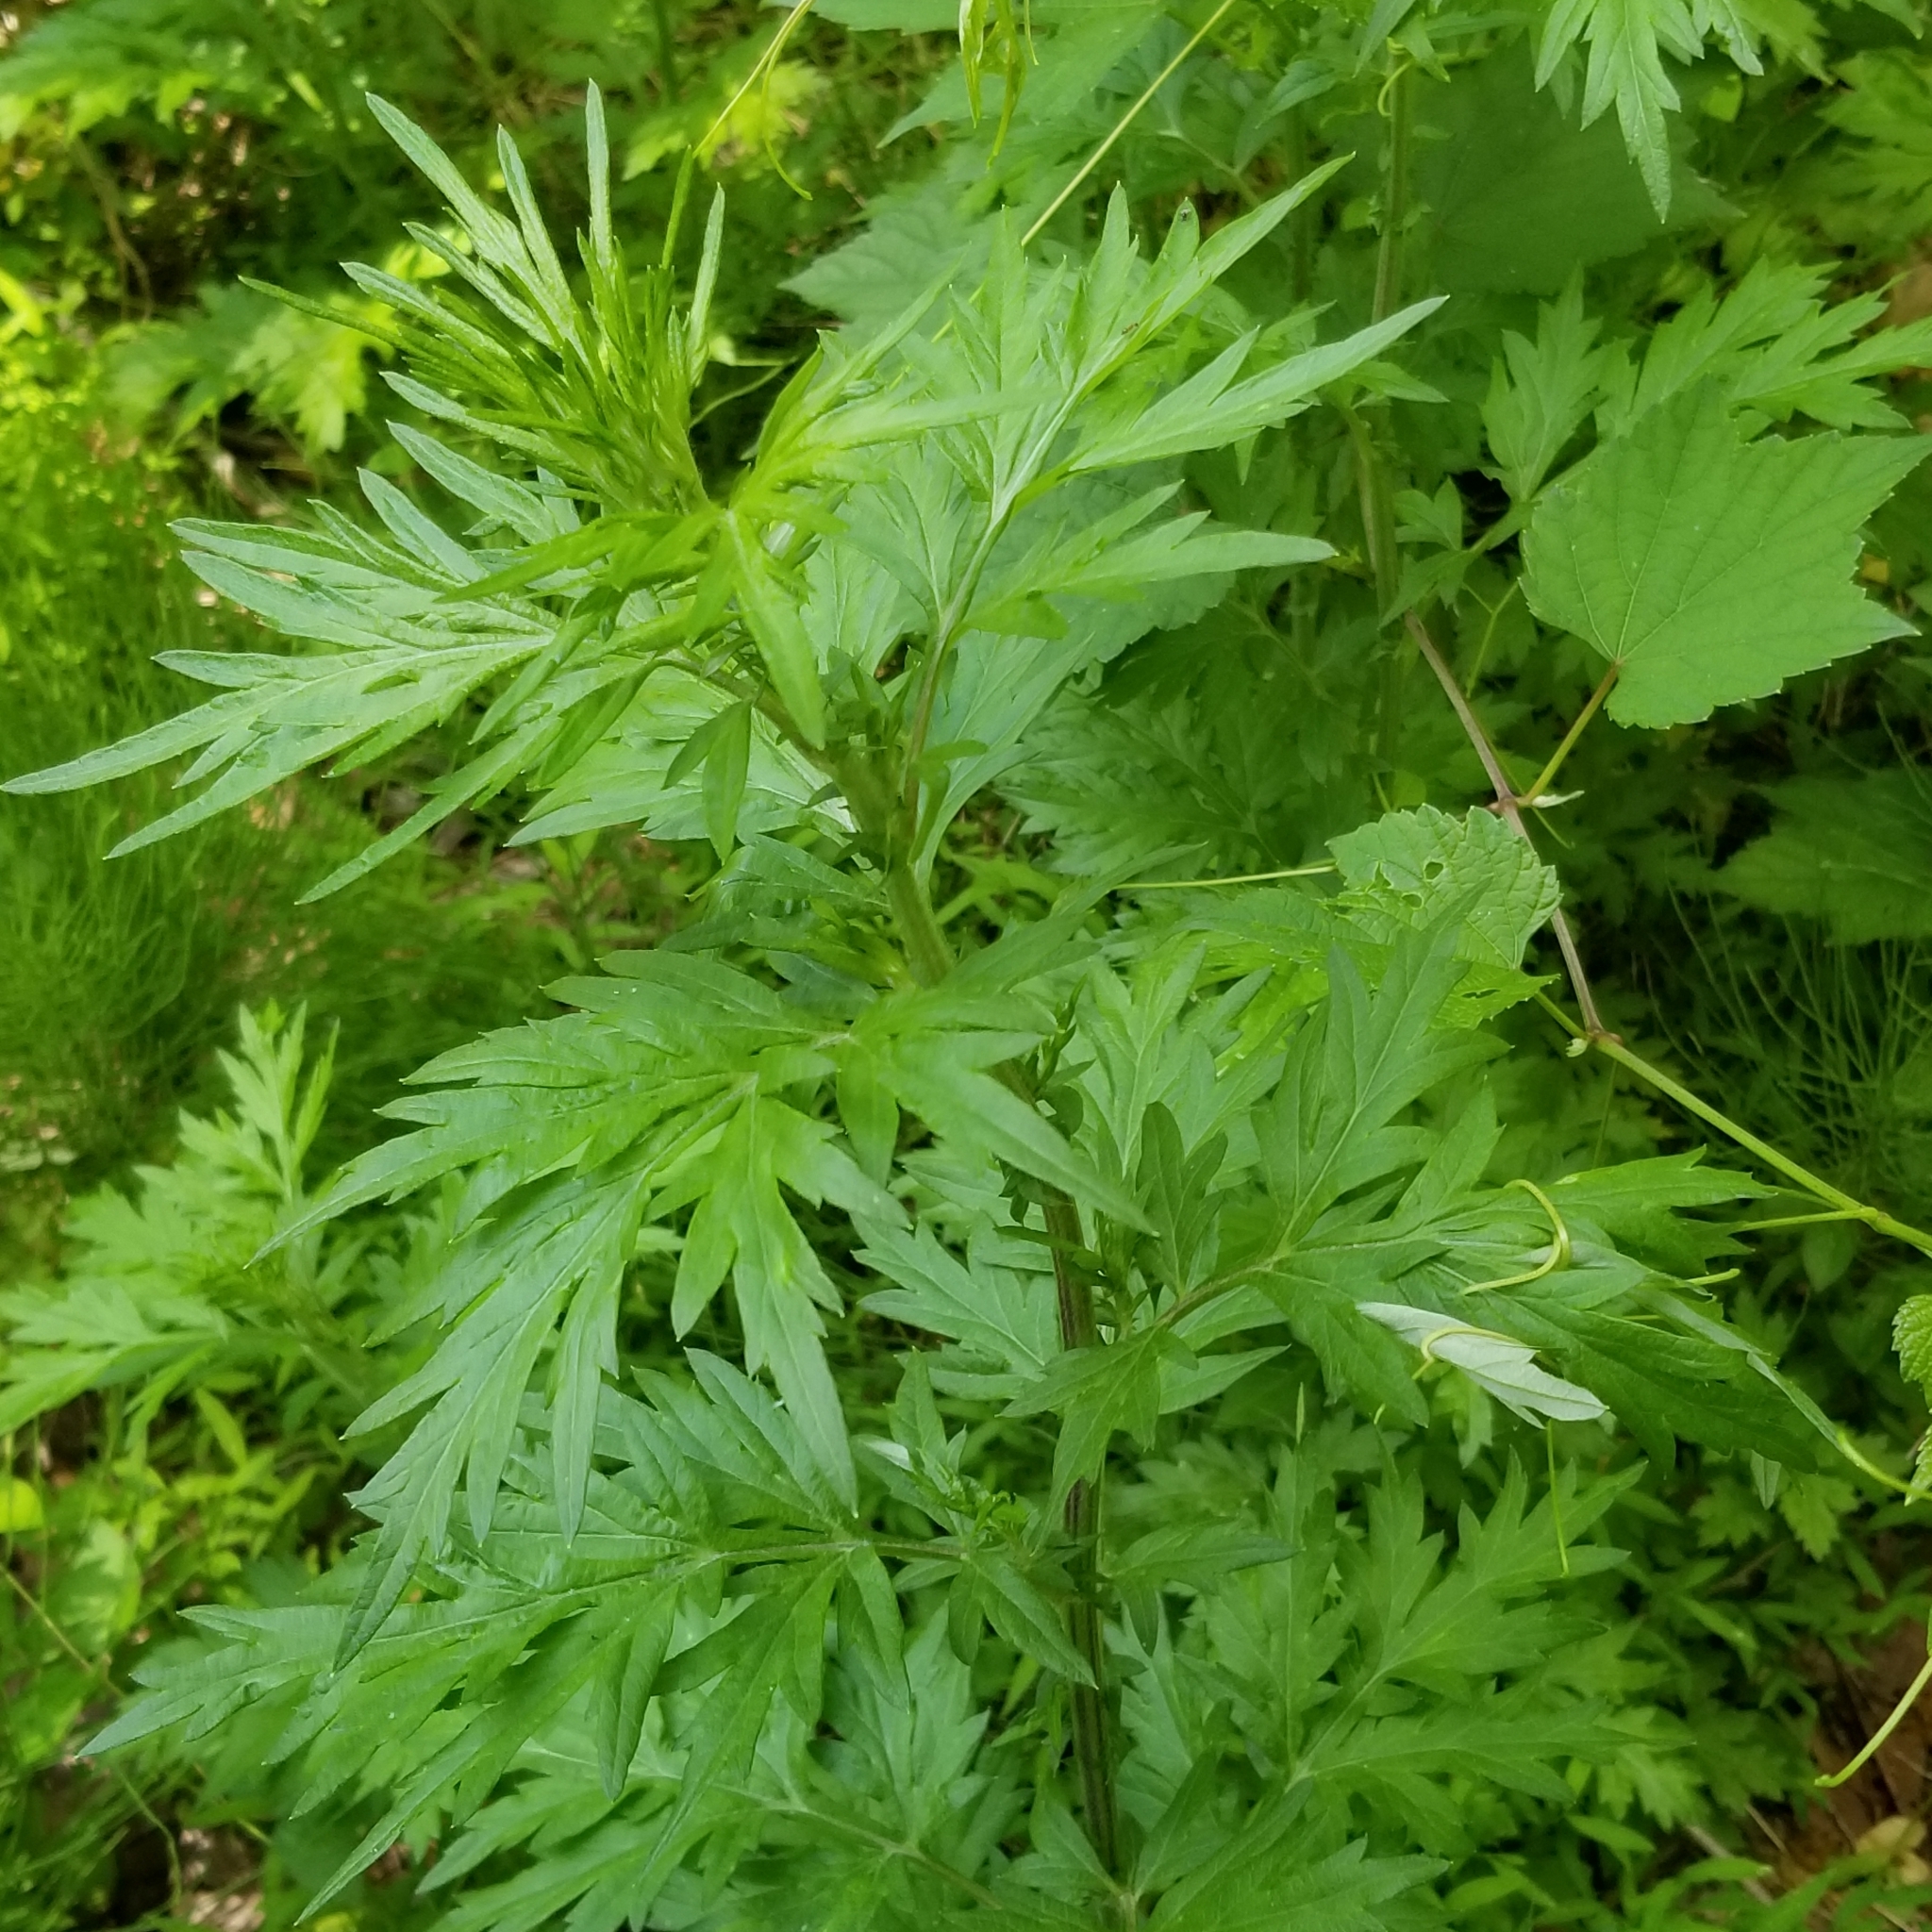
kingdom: Plantae
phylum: Tracheophyta
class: Magnoliopsida
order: Asterales
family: Asteraceae
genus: Artemisia
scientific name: Artemisia vulgaris
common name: Mugwort
